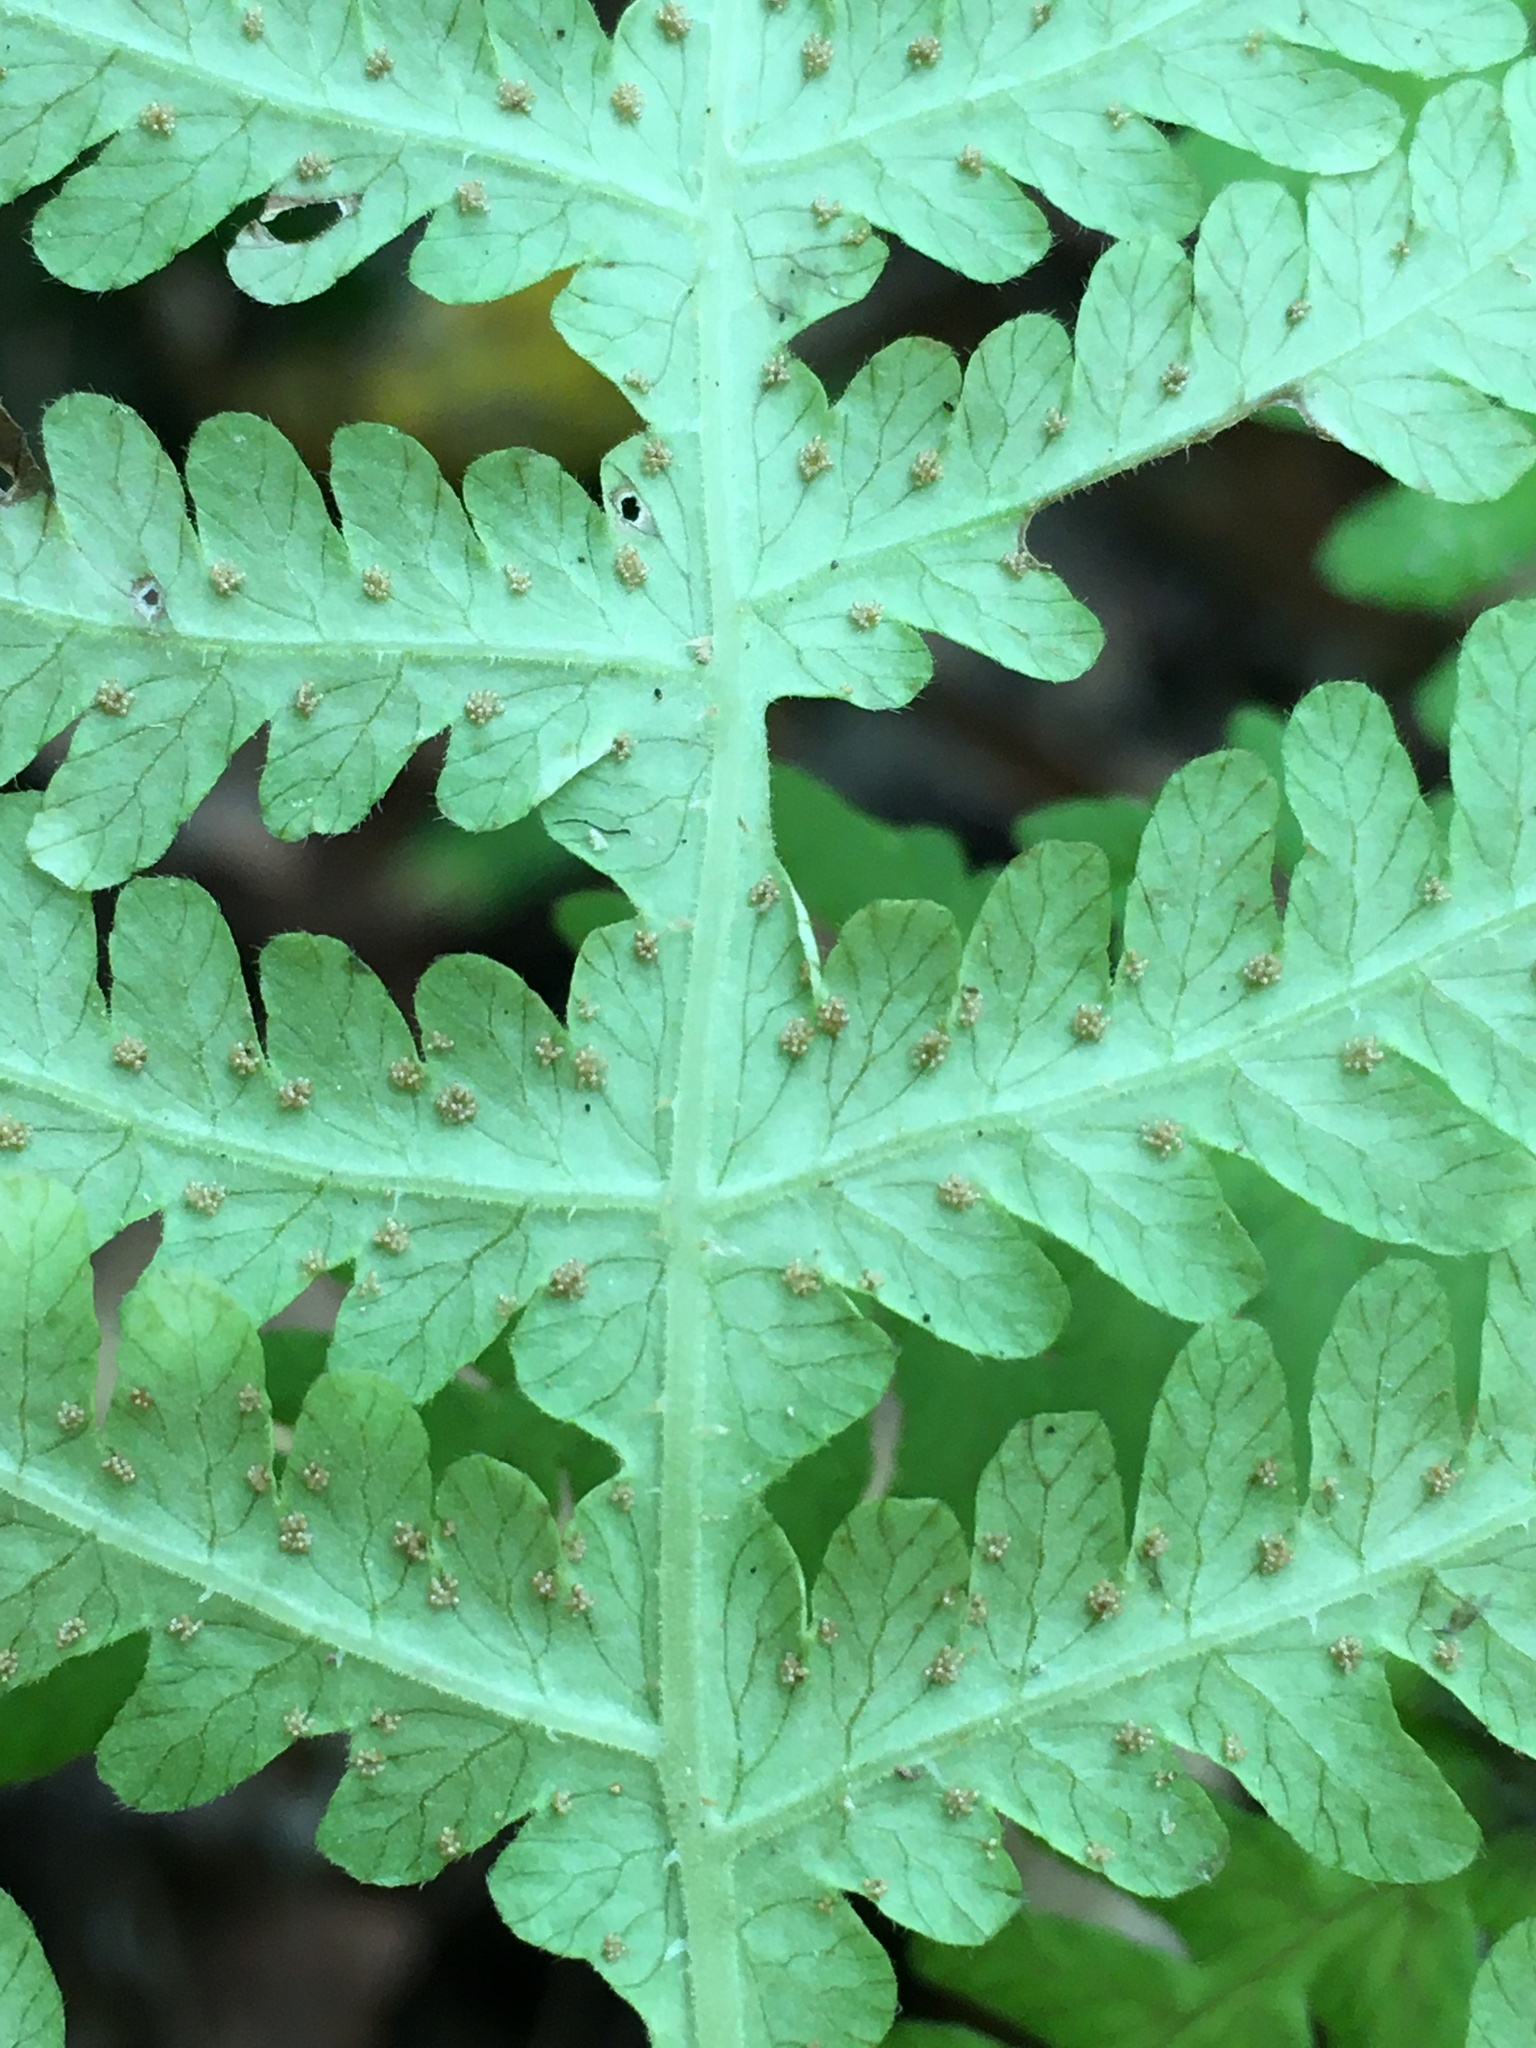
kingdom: Plantae
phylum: Tracheophyta
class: Polypodiopsida
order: Polypodiales
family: Thelypteridaceae
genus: Phegopteris
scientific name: Phegopteris hexagonoptera
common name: Broad beech fern
